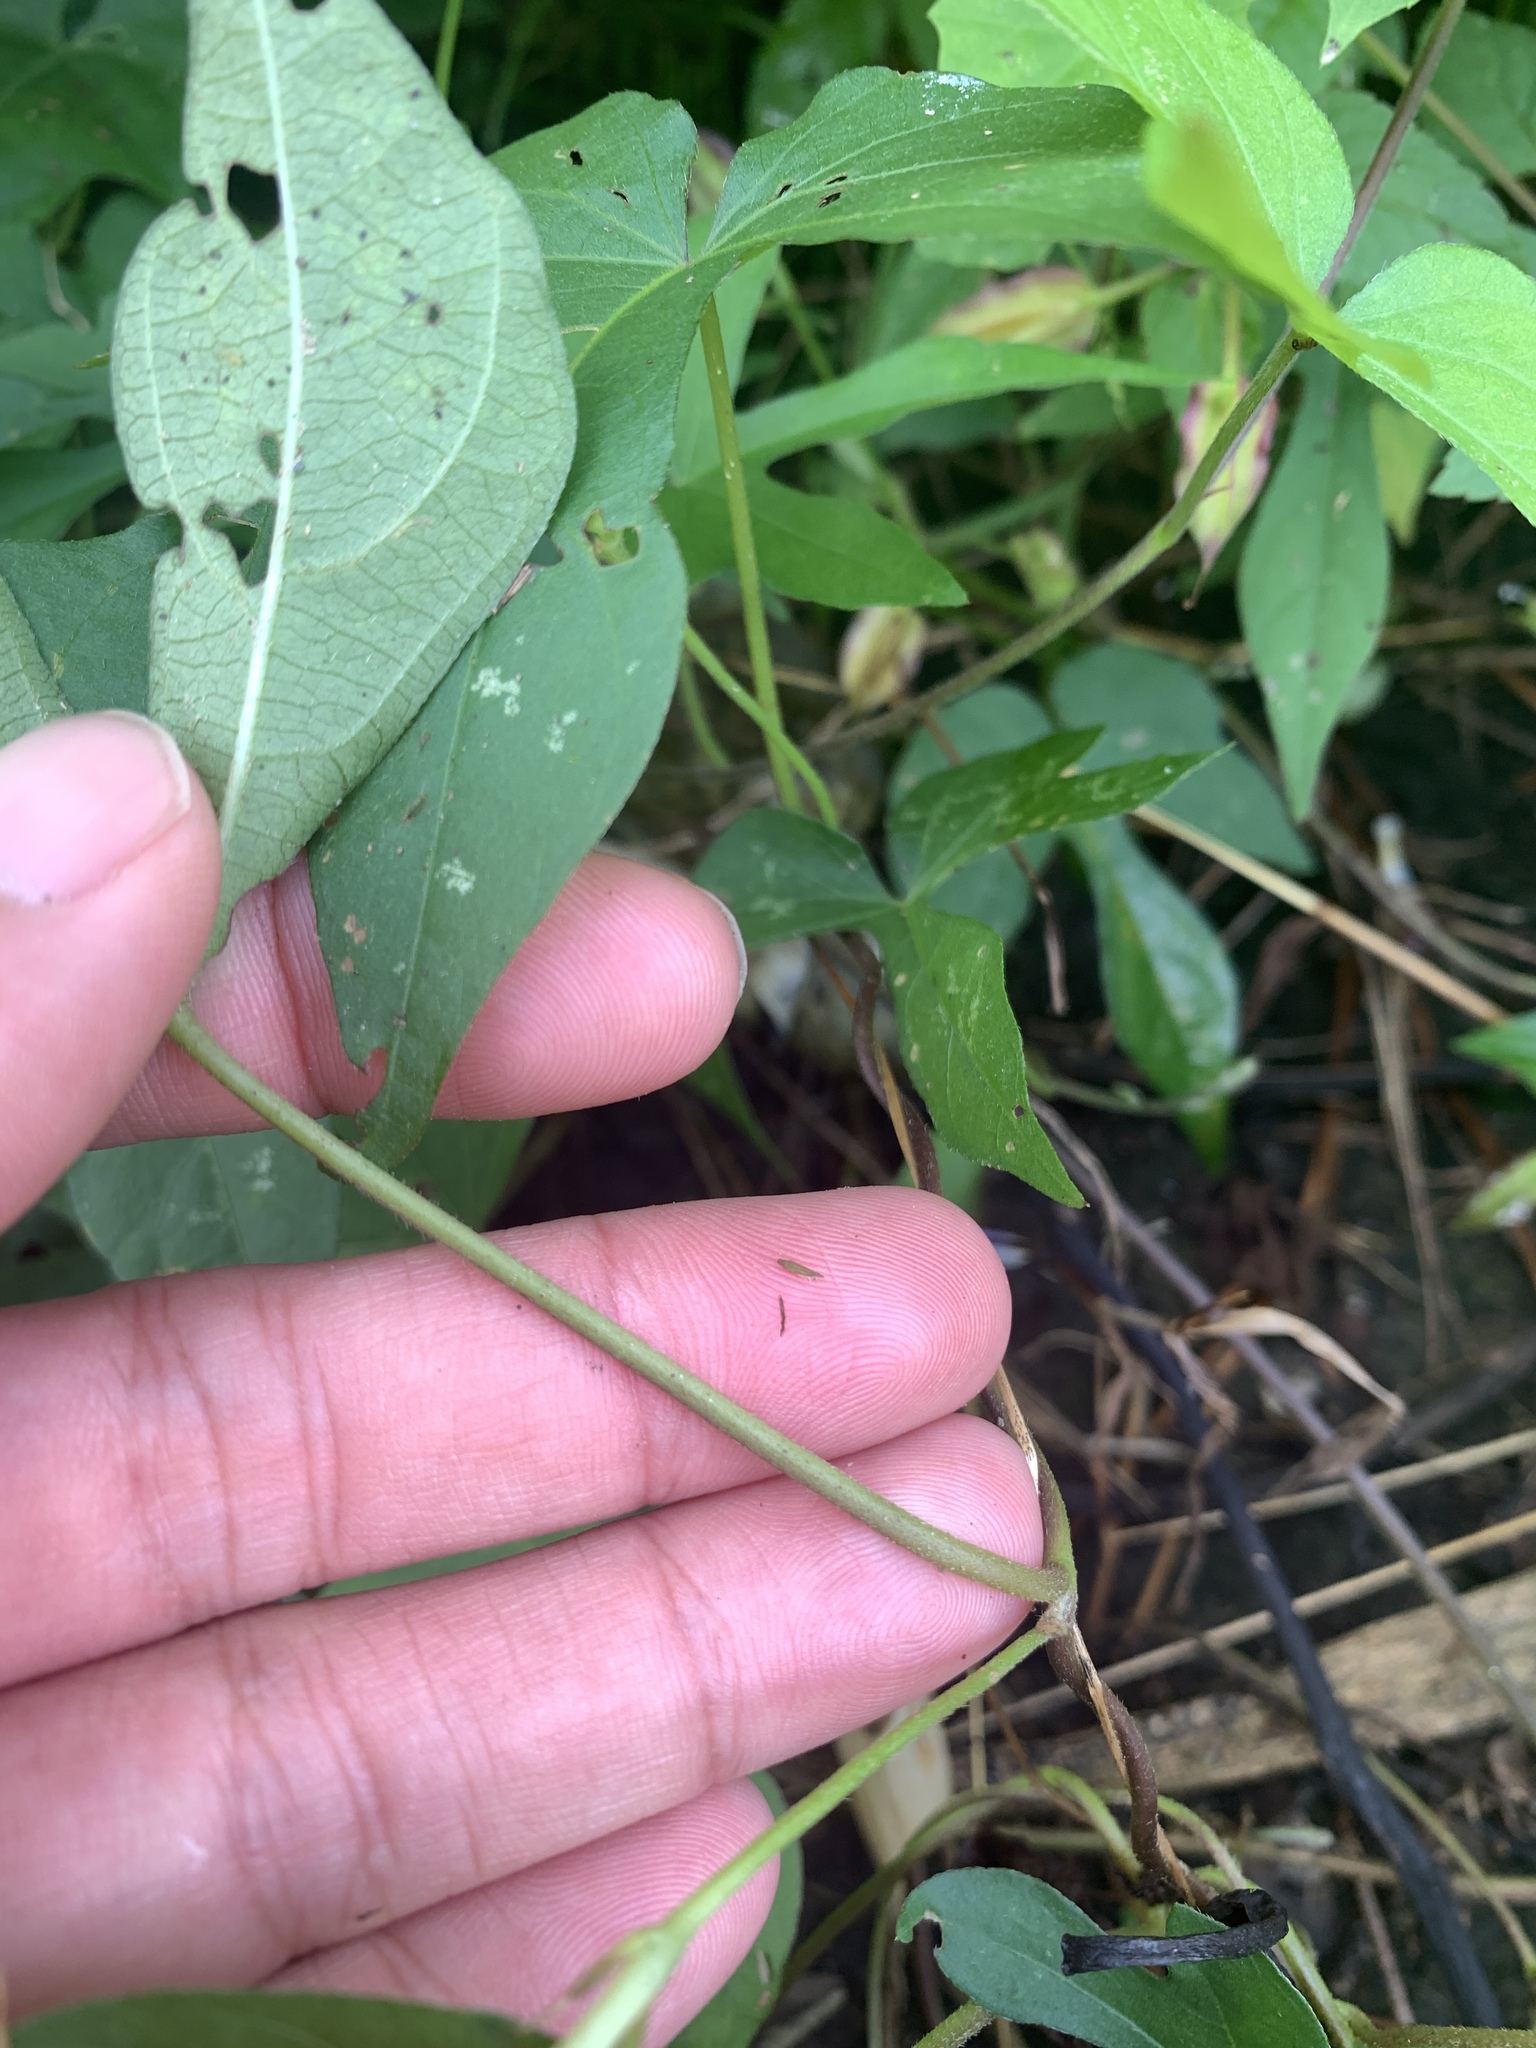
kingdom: Plantae
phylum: Tracheophyta
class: Magnoliopsida
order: Solanales
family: Convolvulaceae
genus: Ipomoea
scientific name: Ipomoea indica
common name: Blue dawnflower
